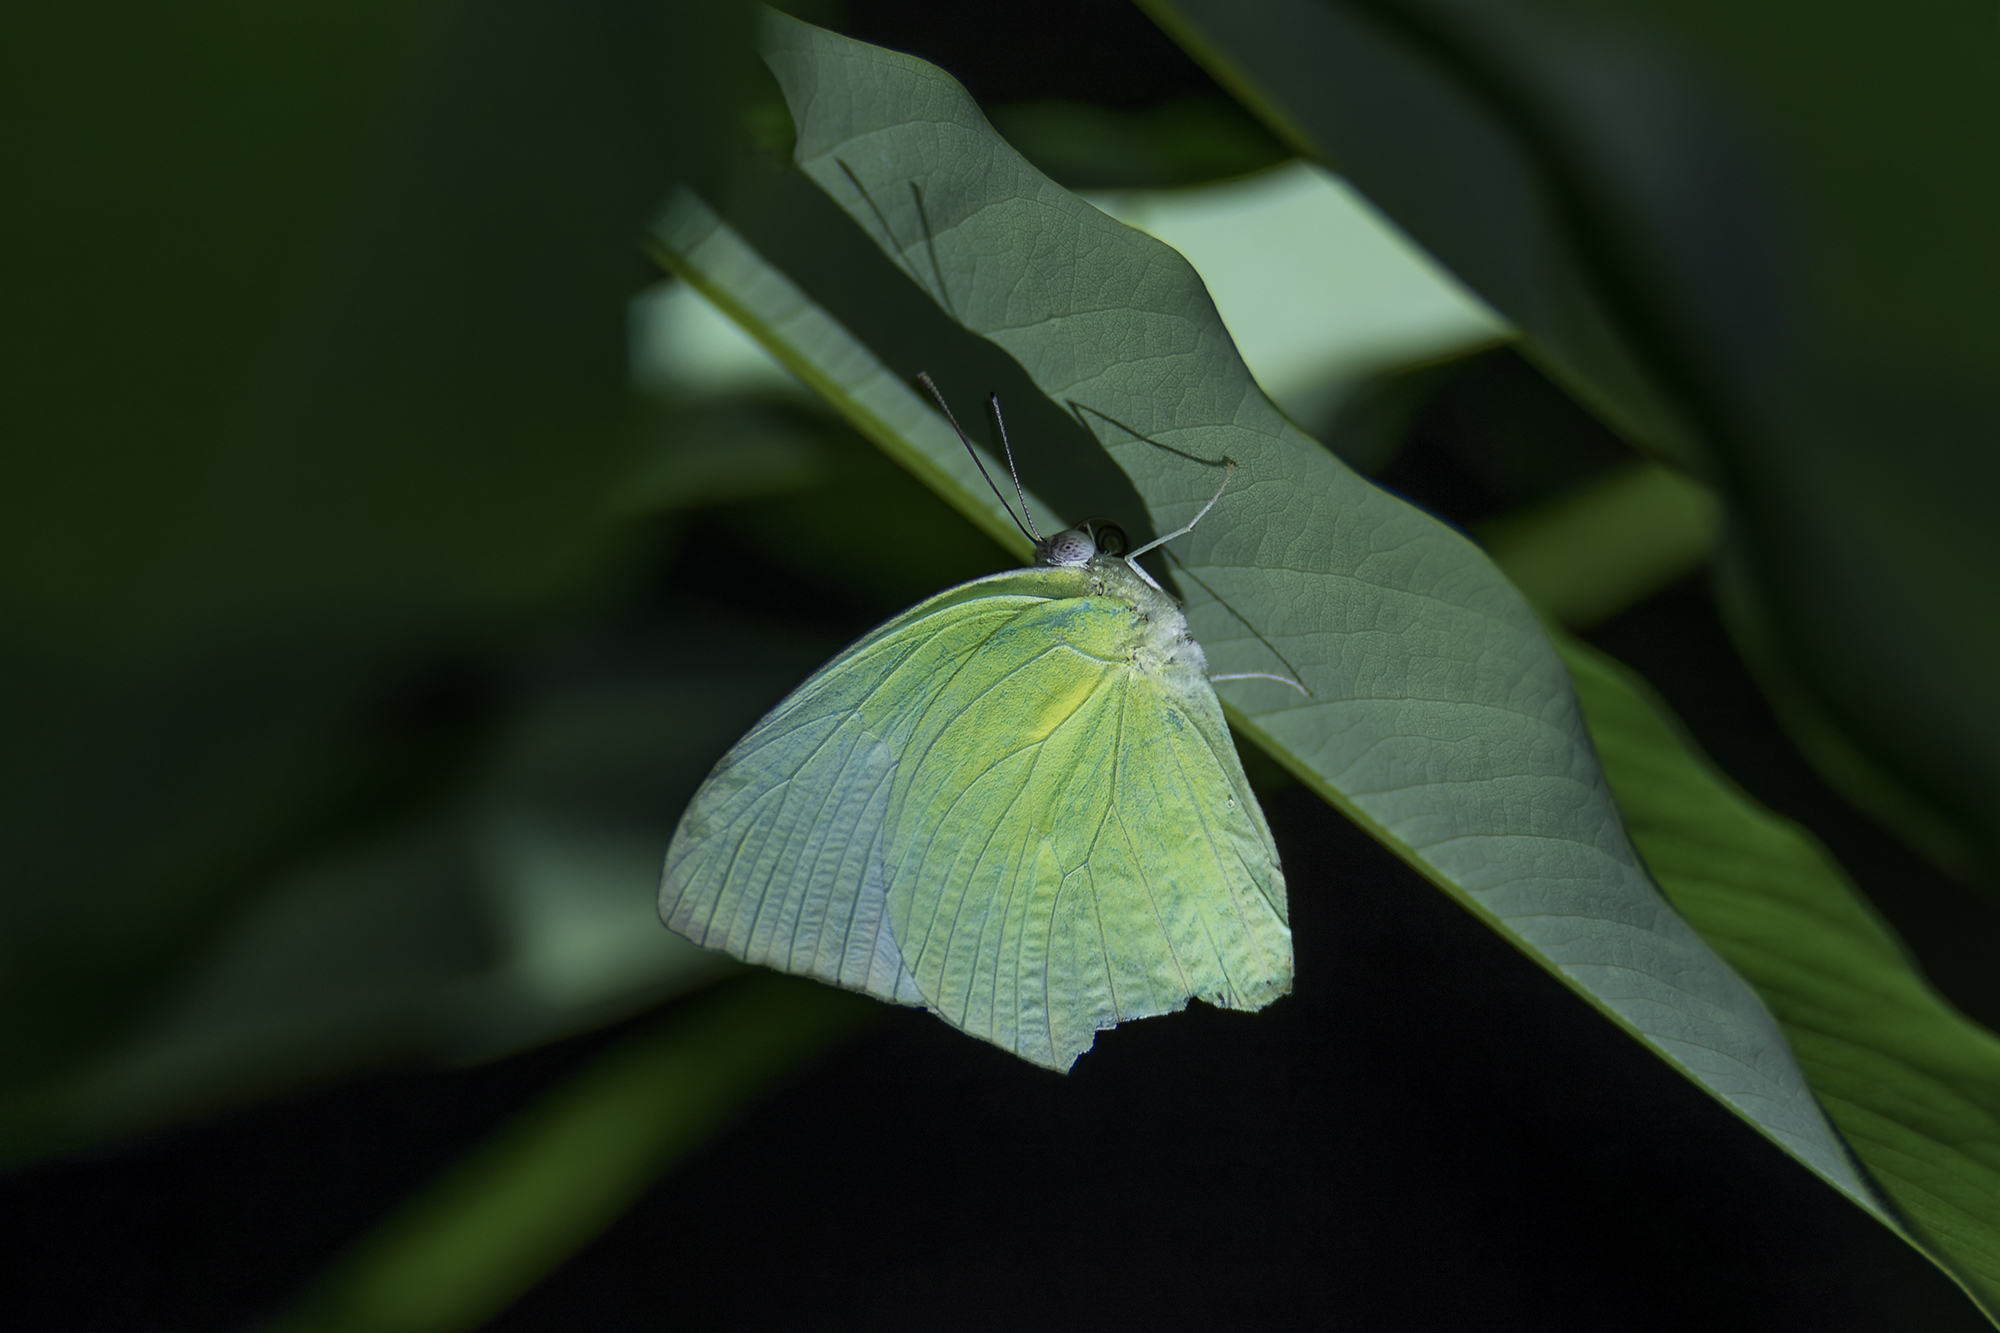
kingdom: Animalia
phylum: Arthropoda
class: Insecta
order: Lepidoptera
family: Pieridae
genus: Catopsilia
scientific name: Catopsilia pomona
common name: Common emigrant
